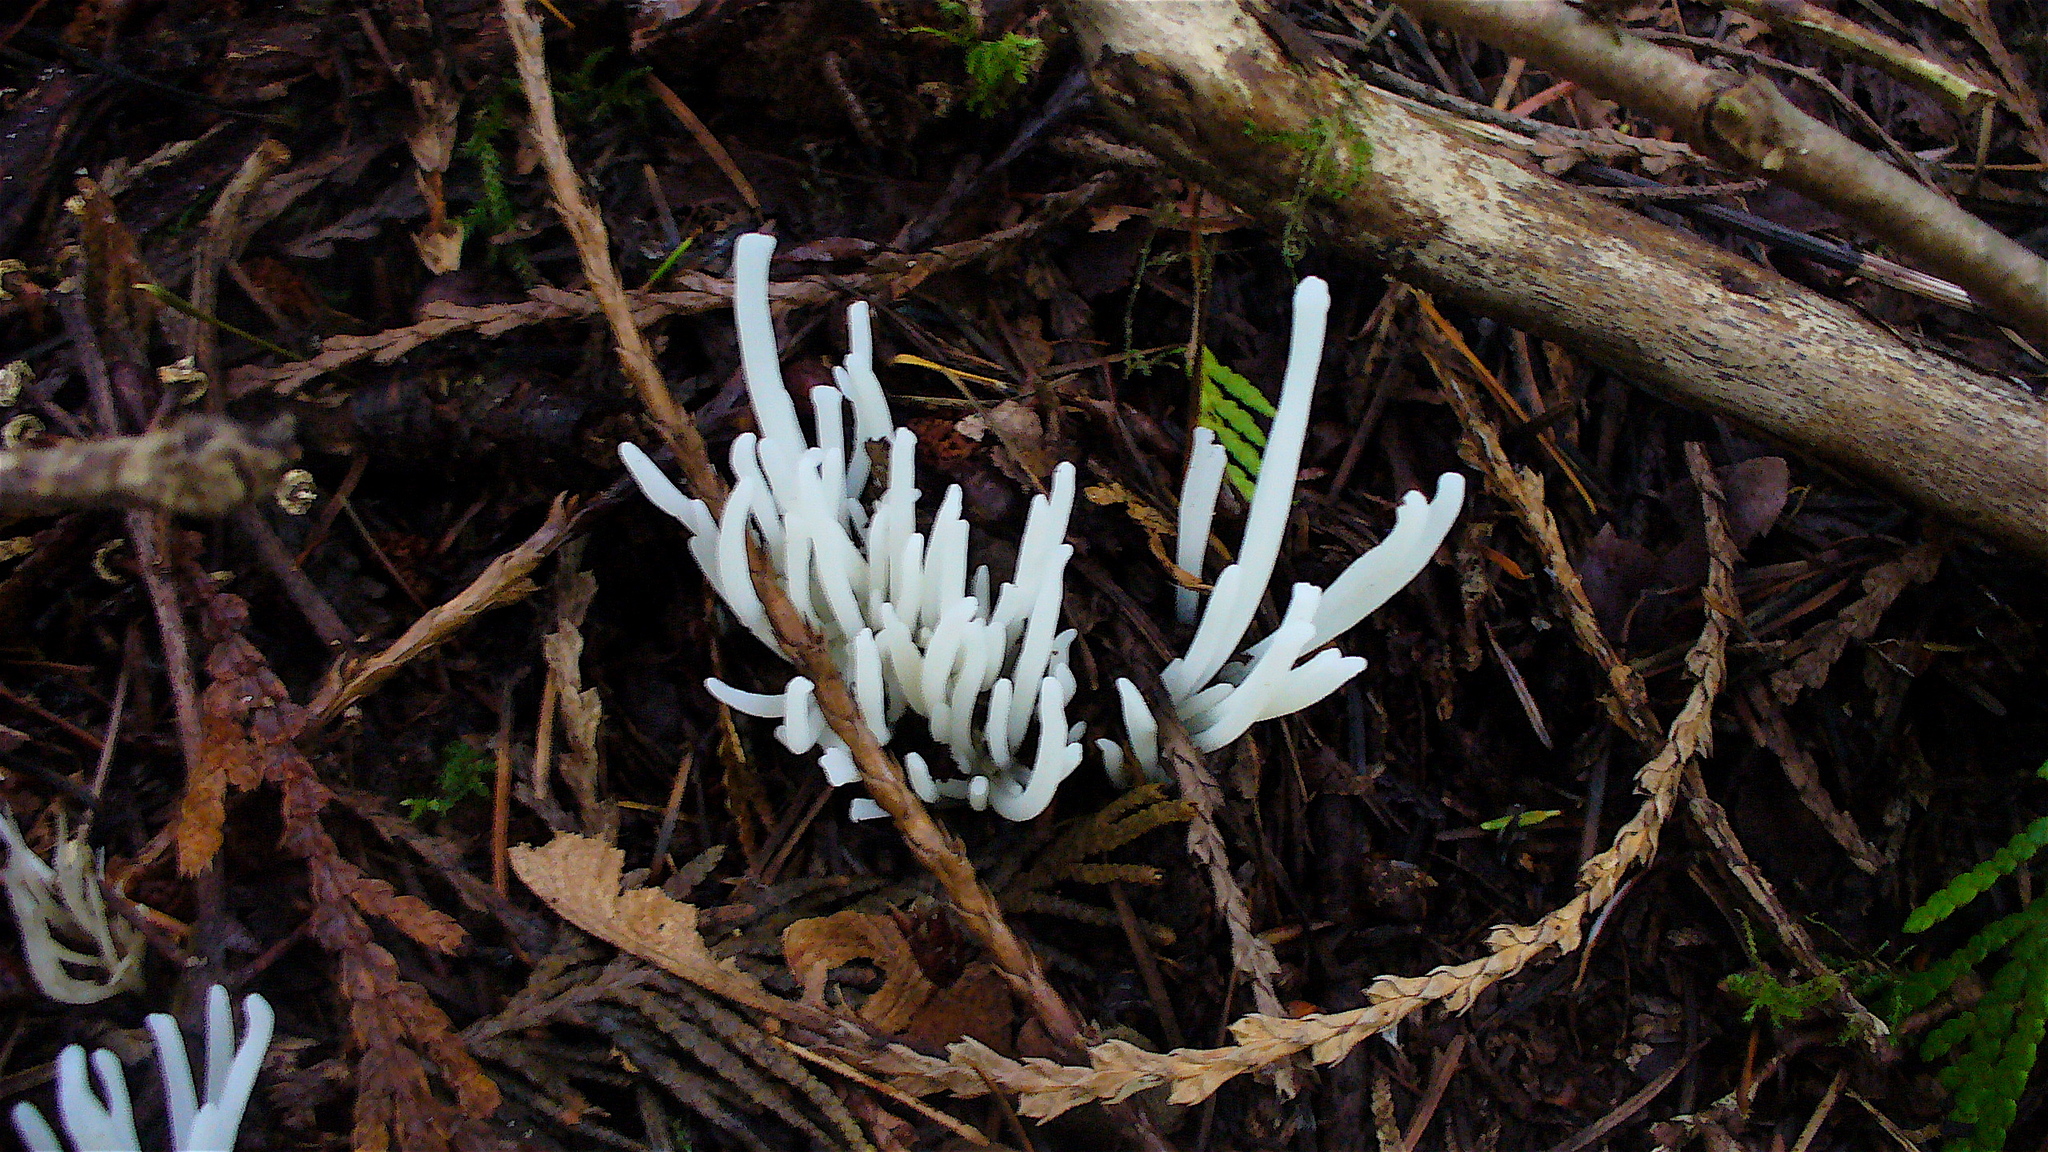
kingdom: Fungi
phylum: Basidiomycota
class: Agaricomycetes
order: Agaricales
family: Clavariaceae
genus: Clavaria
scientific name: Clavaria fragilis
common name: White spindles
